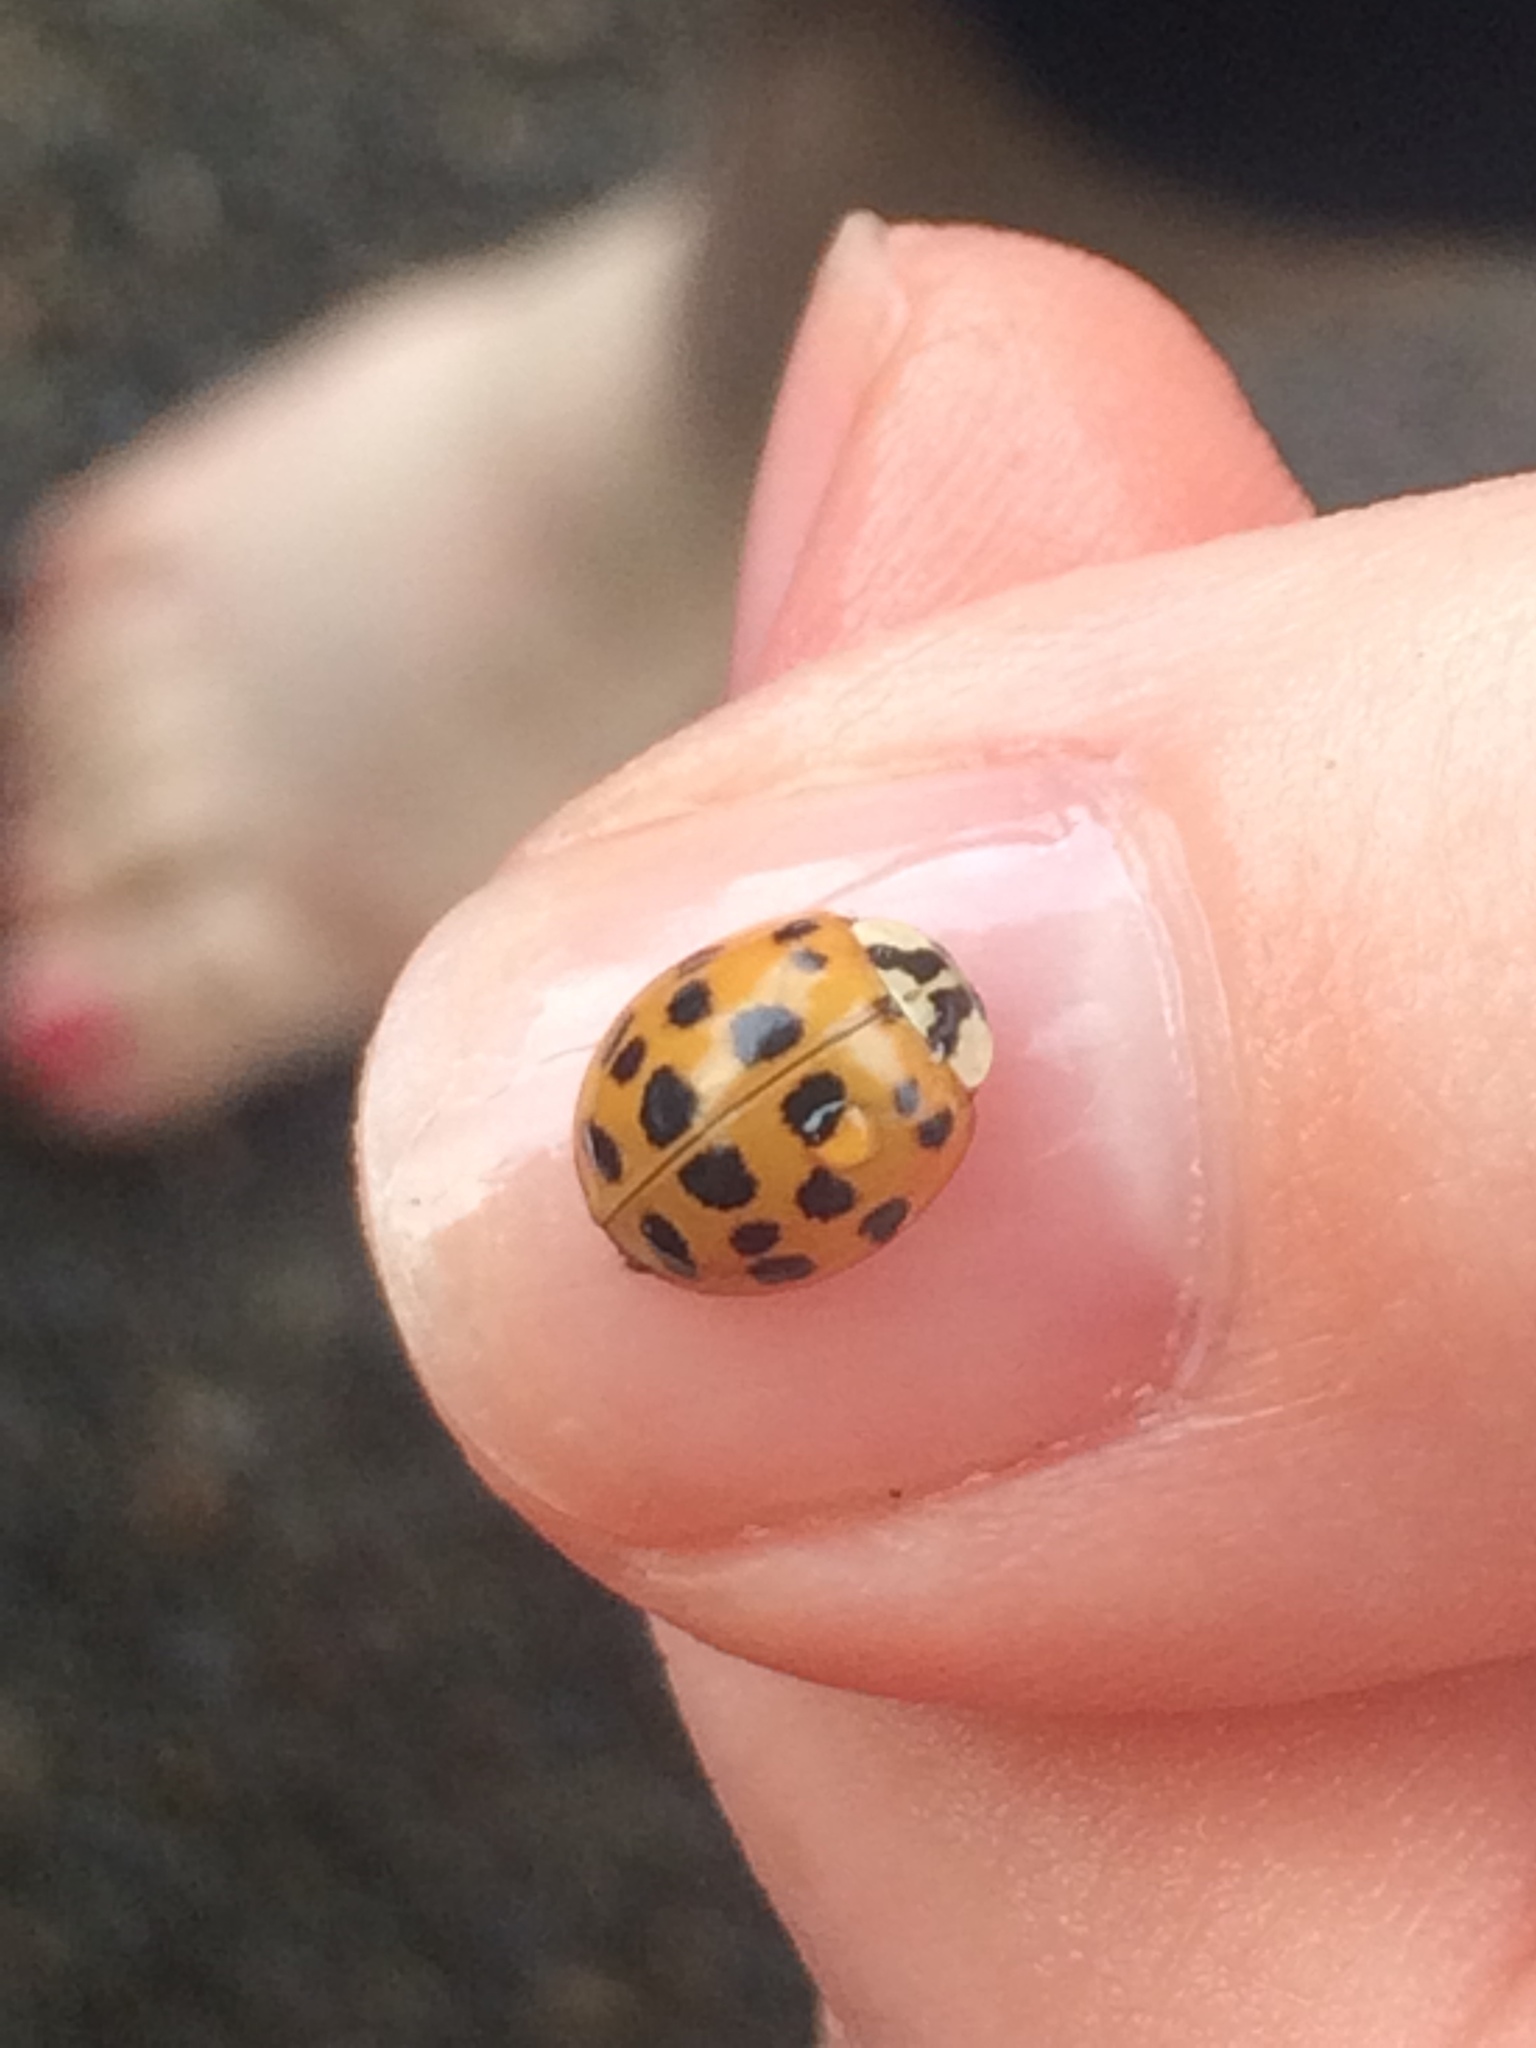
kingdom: Animalia
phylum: Arthropoda
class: Insecta
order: Coleoptera
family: Coccinellidae
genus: Harmonia
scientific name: Harmonia axyridis
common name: Harlequin ladybird
